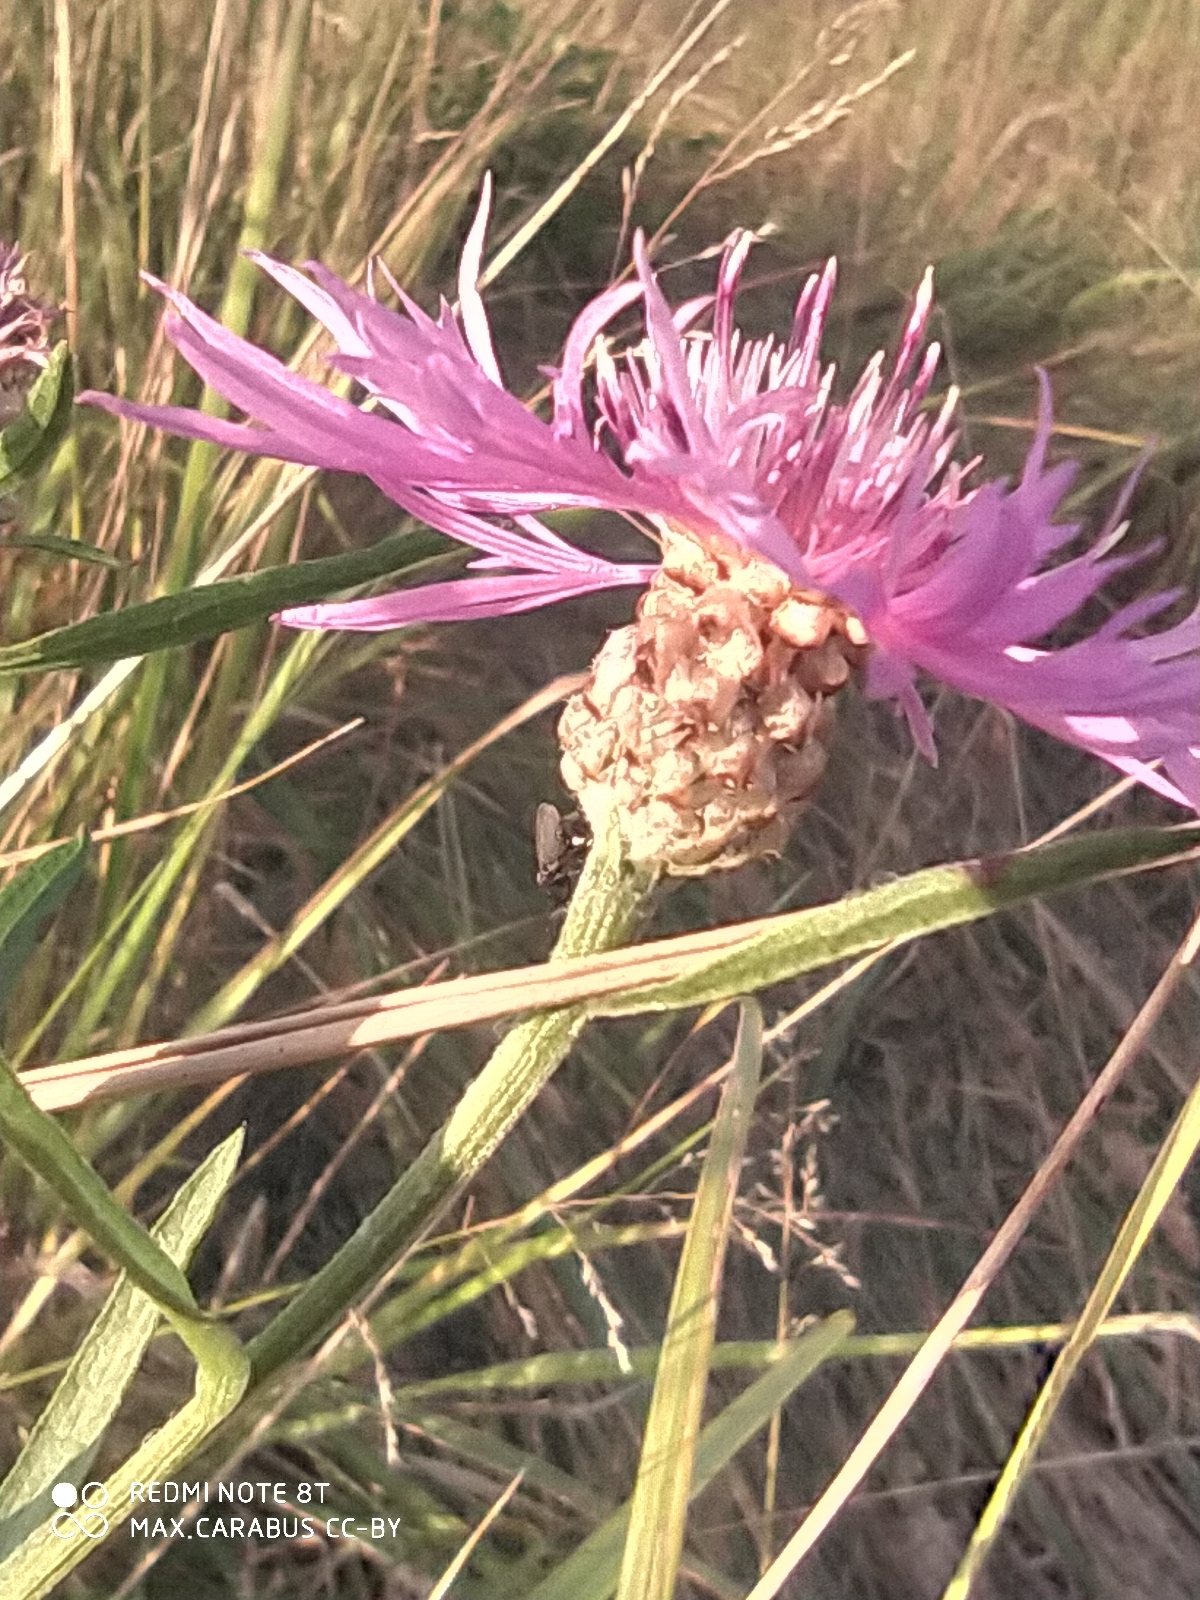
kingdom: Plantae
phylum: Tracheophyta
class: Magnoliopsida
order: Asterales
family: Asteraceae
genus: Centaurea
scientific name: Centaurea jacea
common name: Brown knapweed
